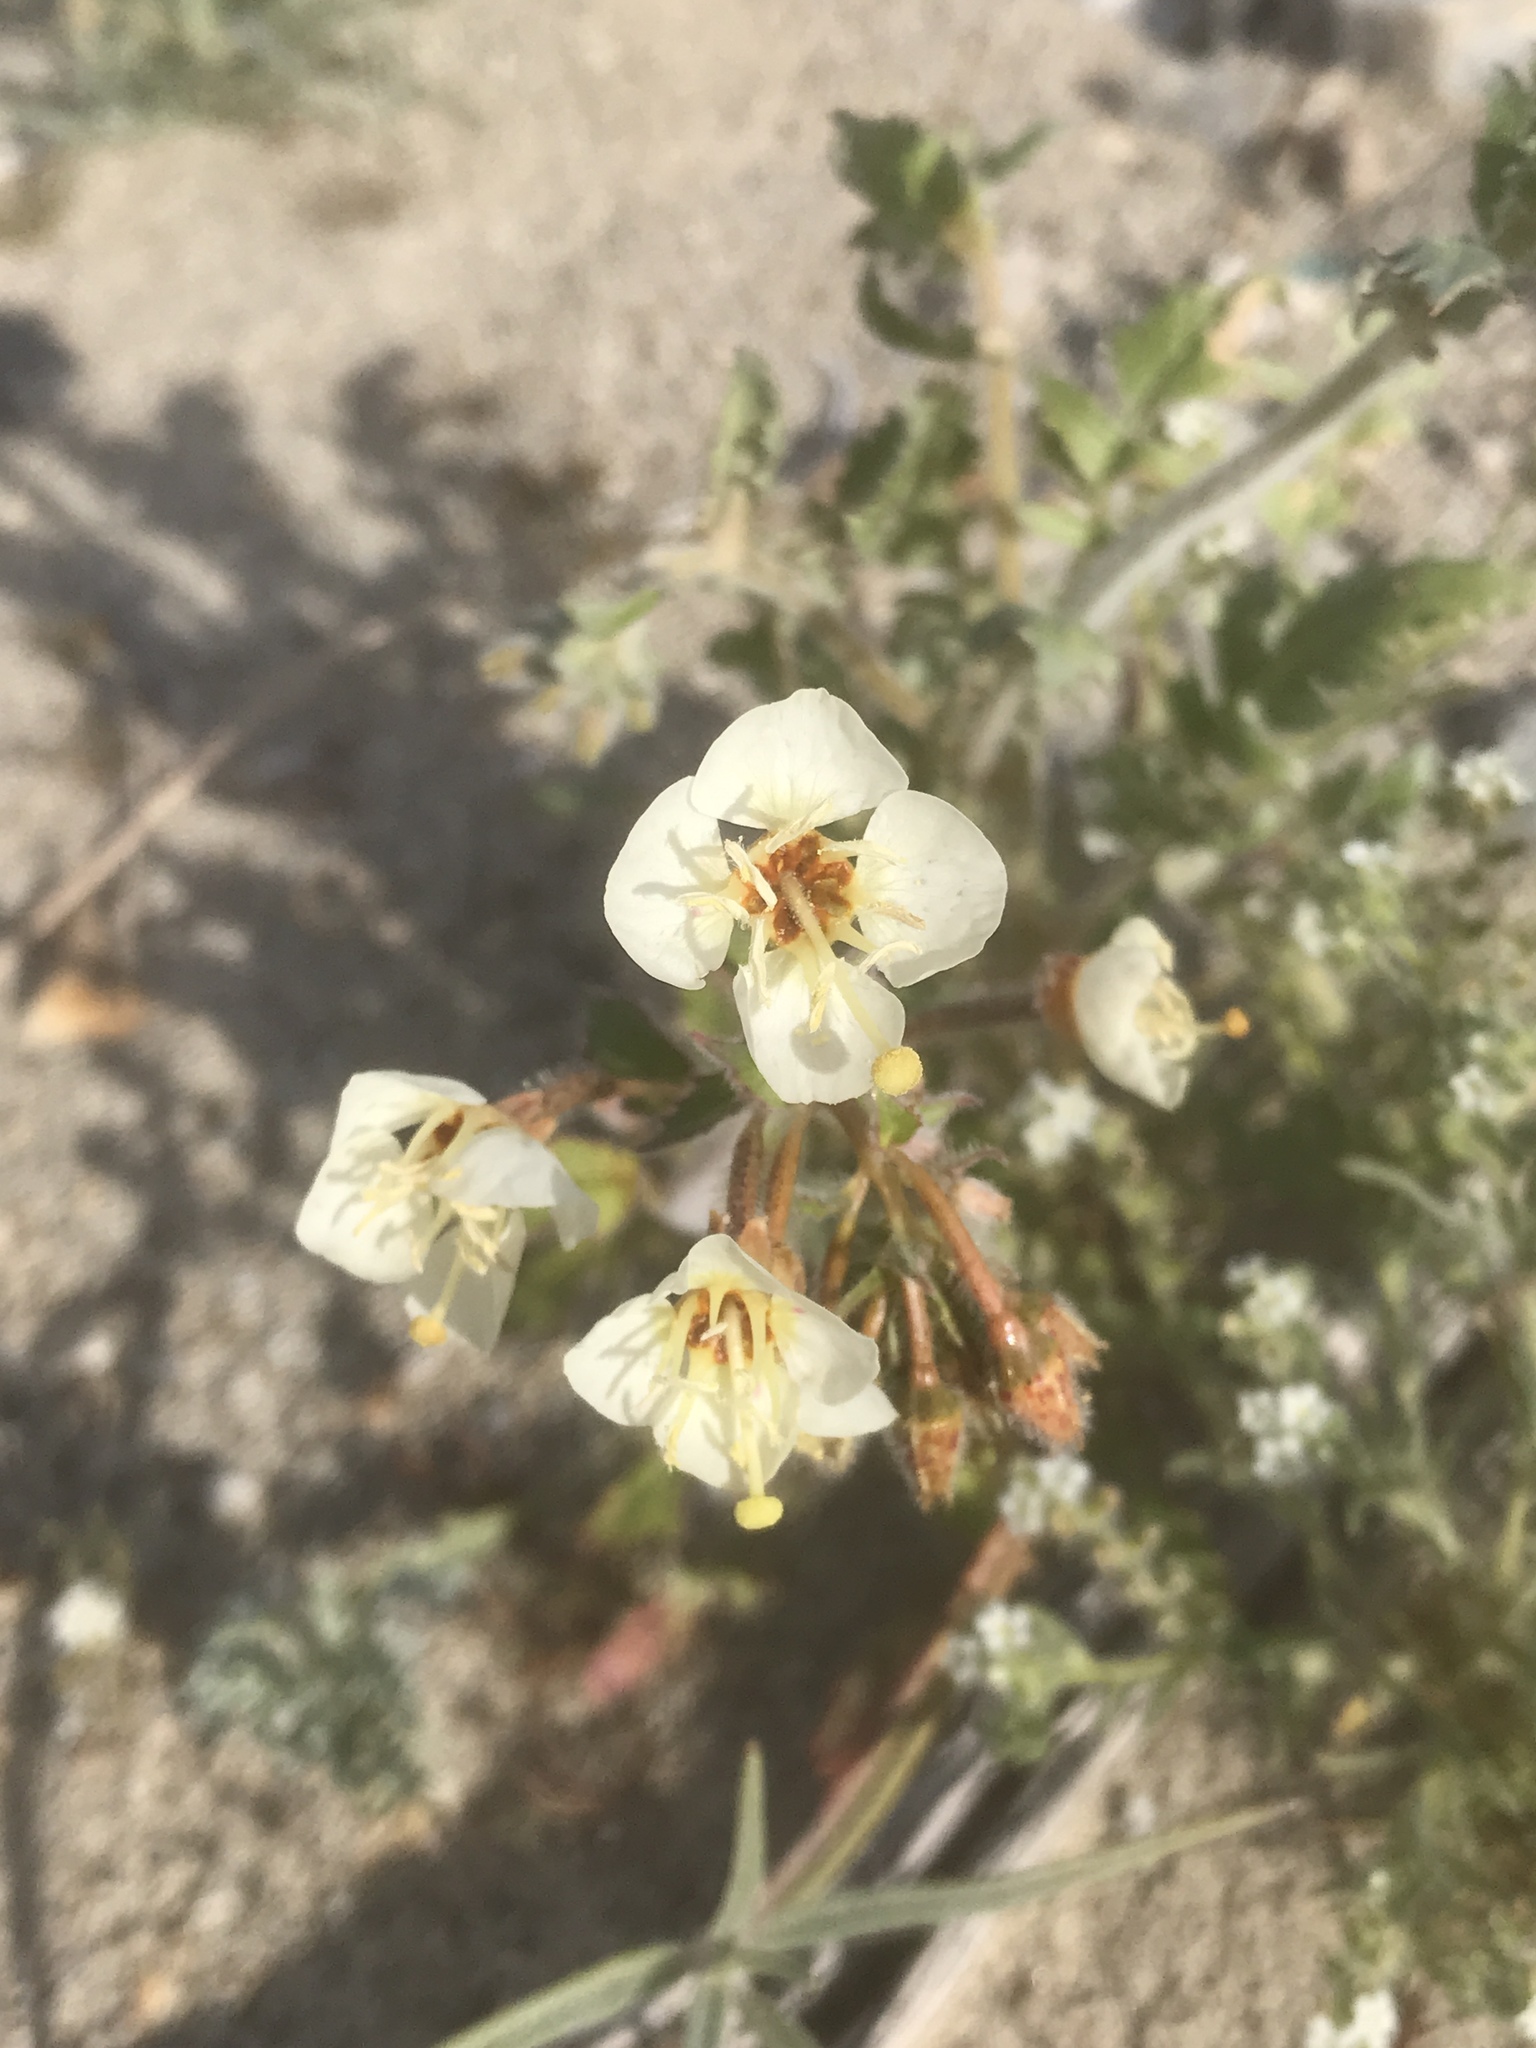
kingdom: Plantae
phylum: Tracheophyta
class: Magnoliopsida
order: Myrtales
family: Onagraceae
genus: Chylismia
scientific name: Chylismia claviformis
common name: Browneyes
